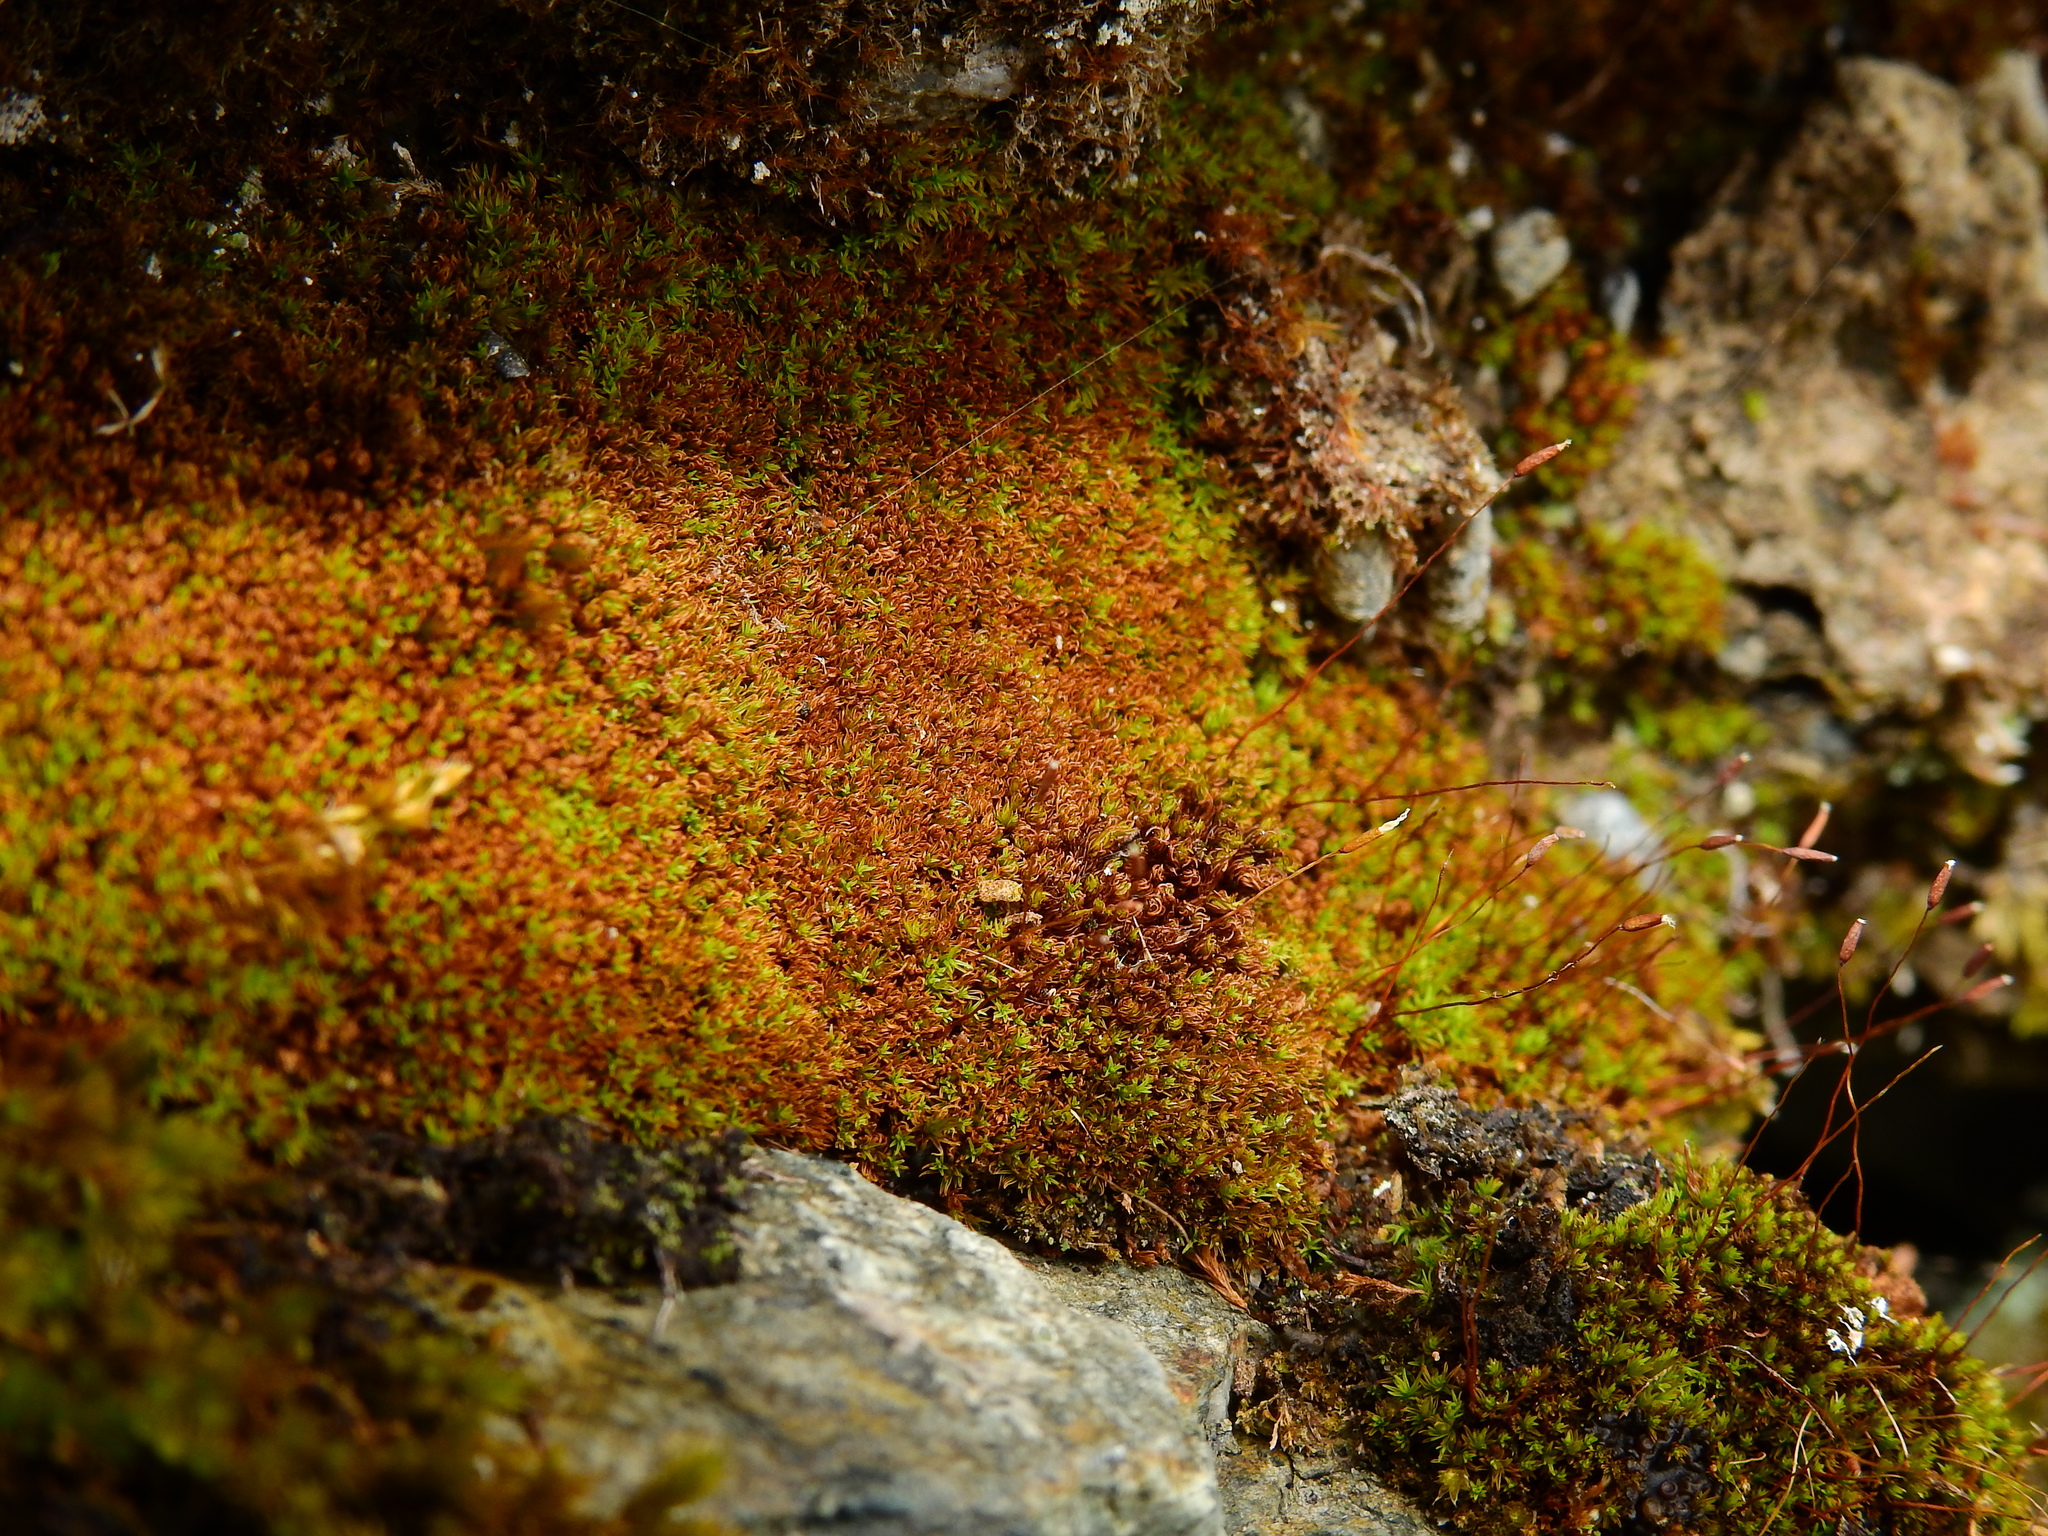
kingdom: Plantae
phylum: Bryophyta
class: Bryopsida
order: Pottiales
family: Pottiaceae
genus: Bryoerythrophyllum
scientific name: Bryoerythrophyllum recurvirostrum
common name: Red beard moss
